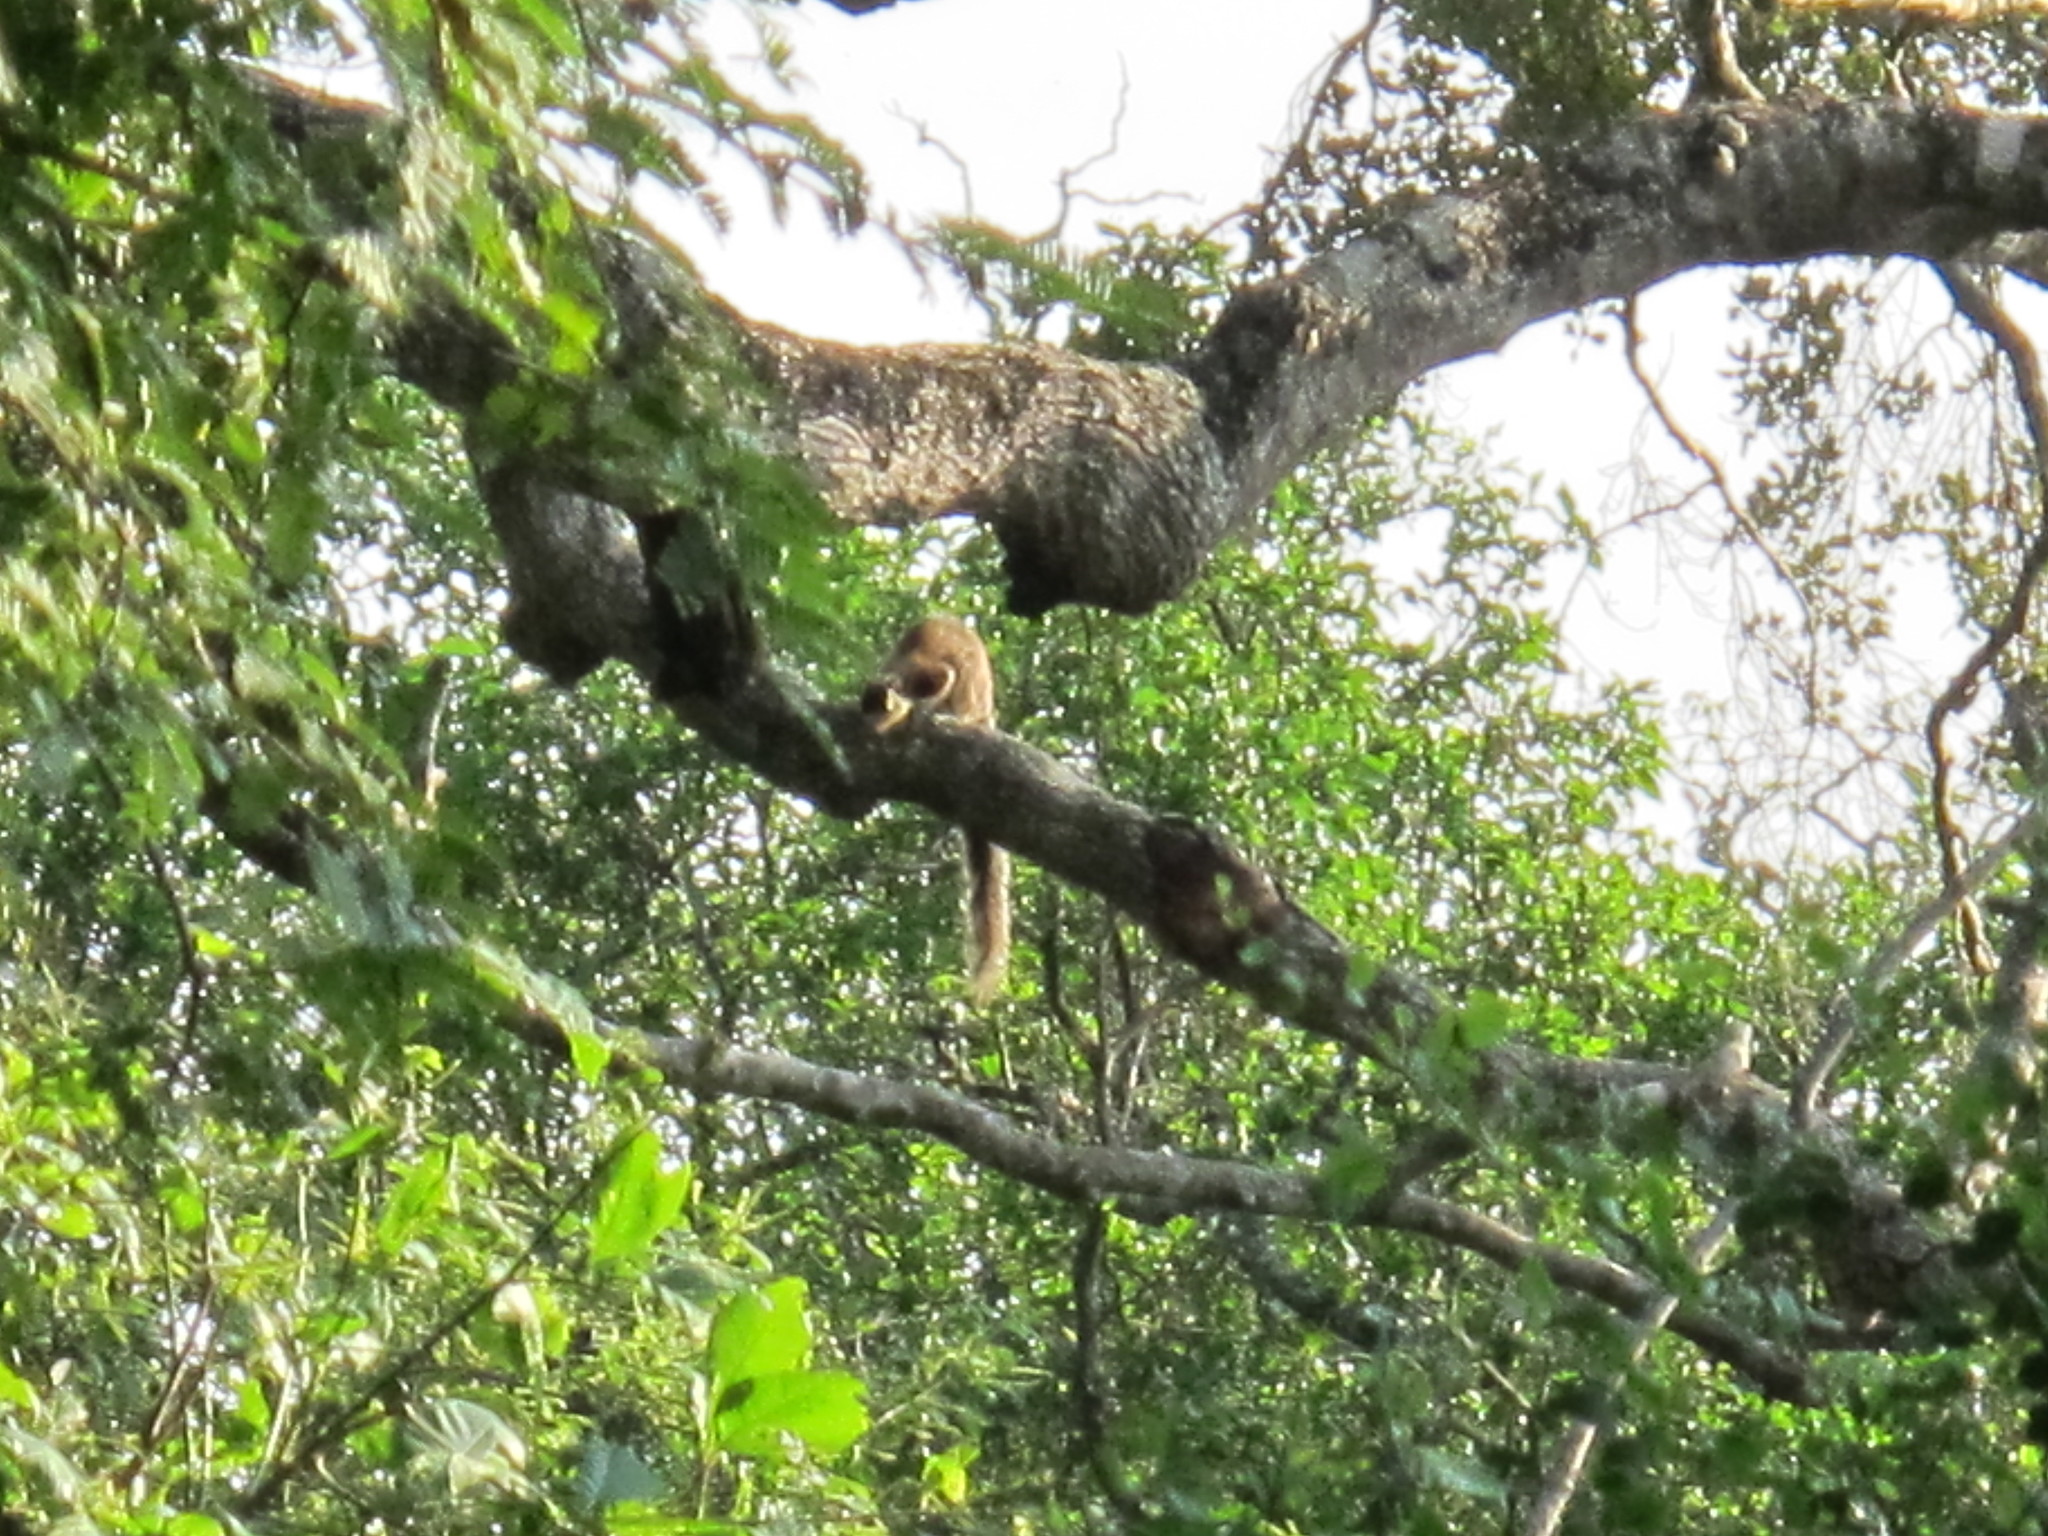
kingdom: Animalia
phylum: Chordata
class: Mammalia
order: Rodentia
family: Sciuridae
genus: Ratufa
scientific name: Ratufa macroura
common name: Sri lankan giant squirrel
